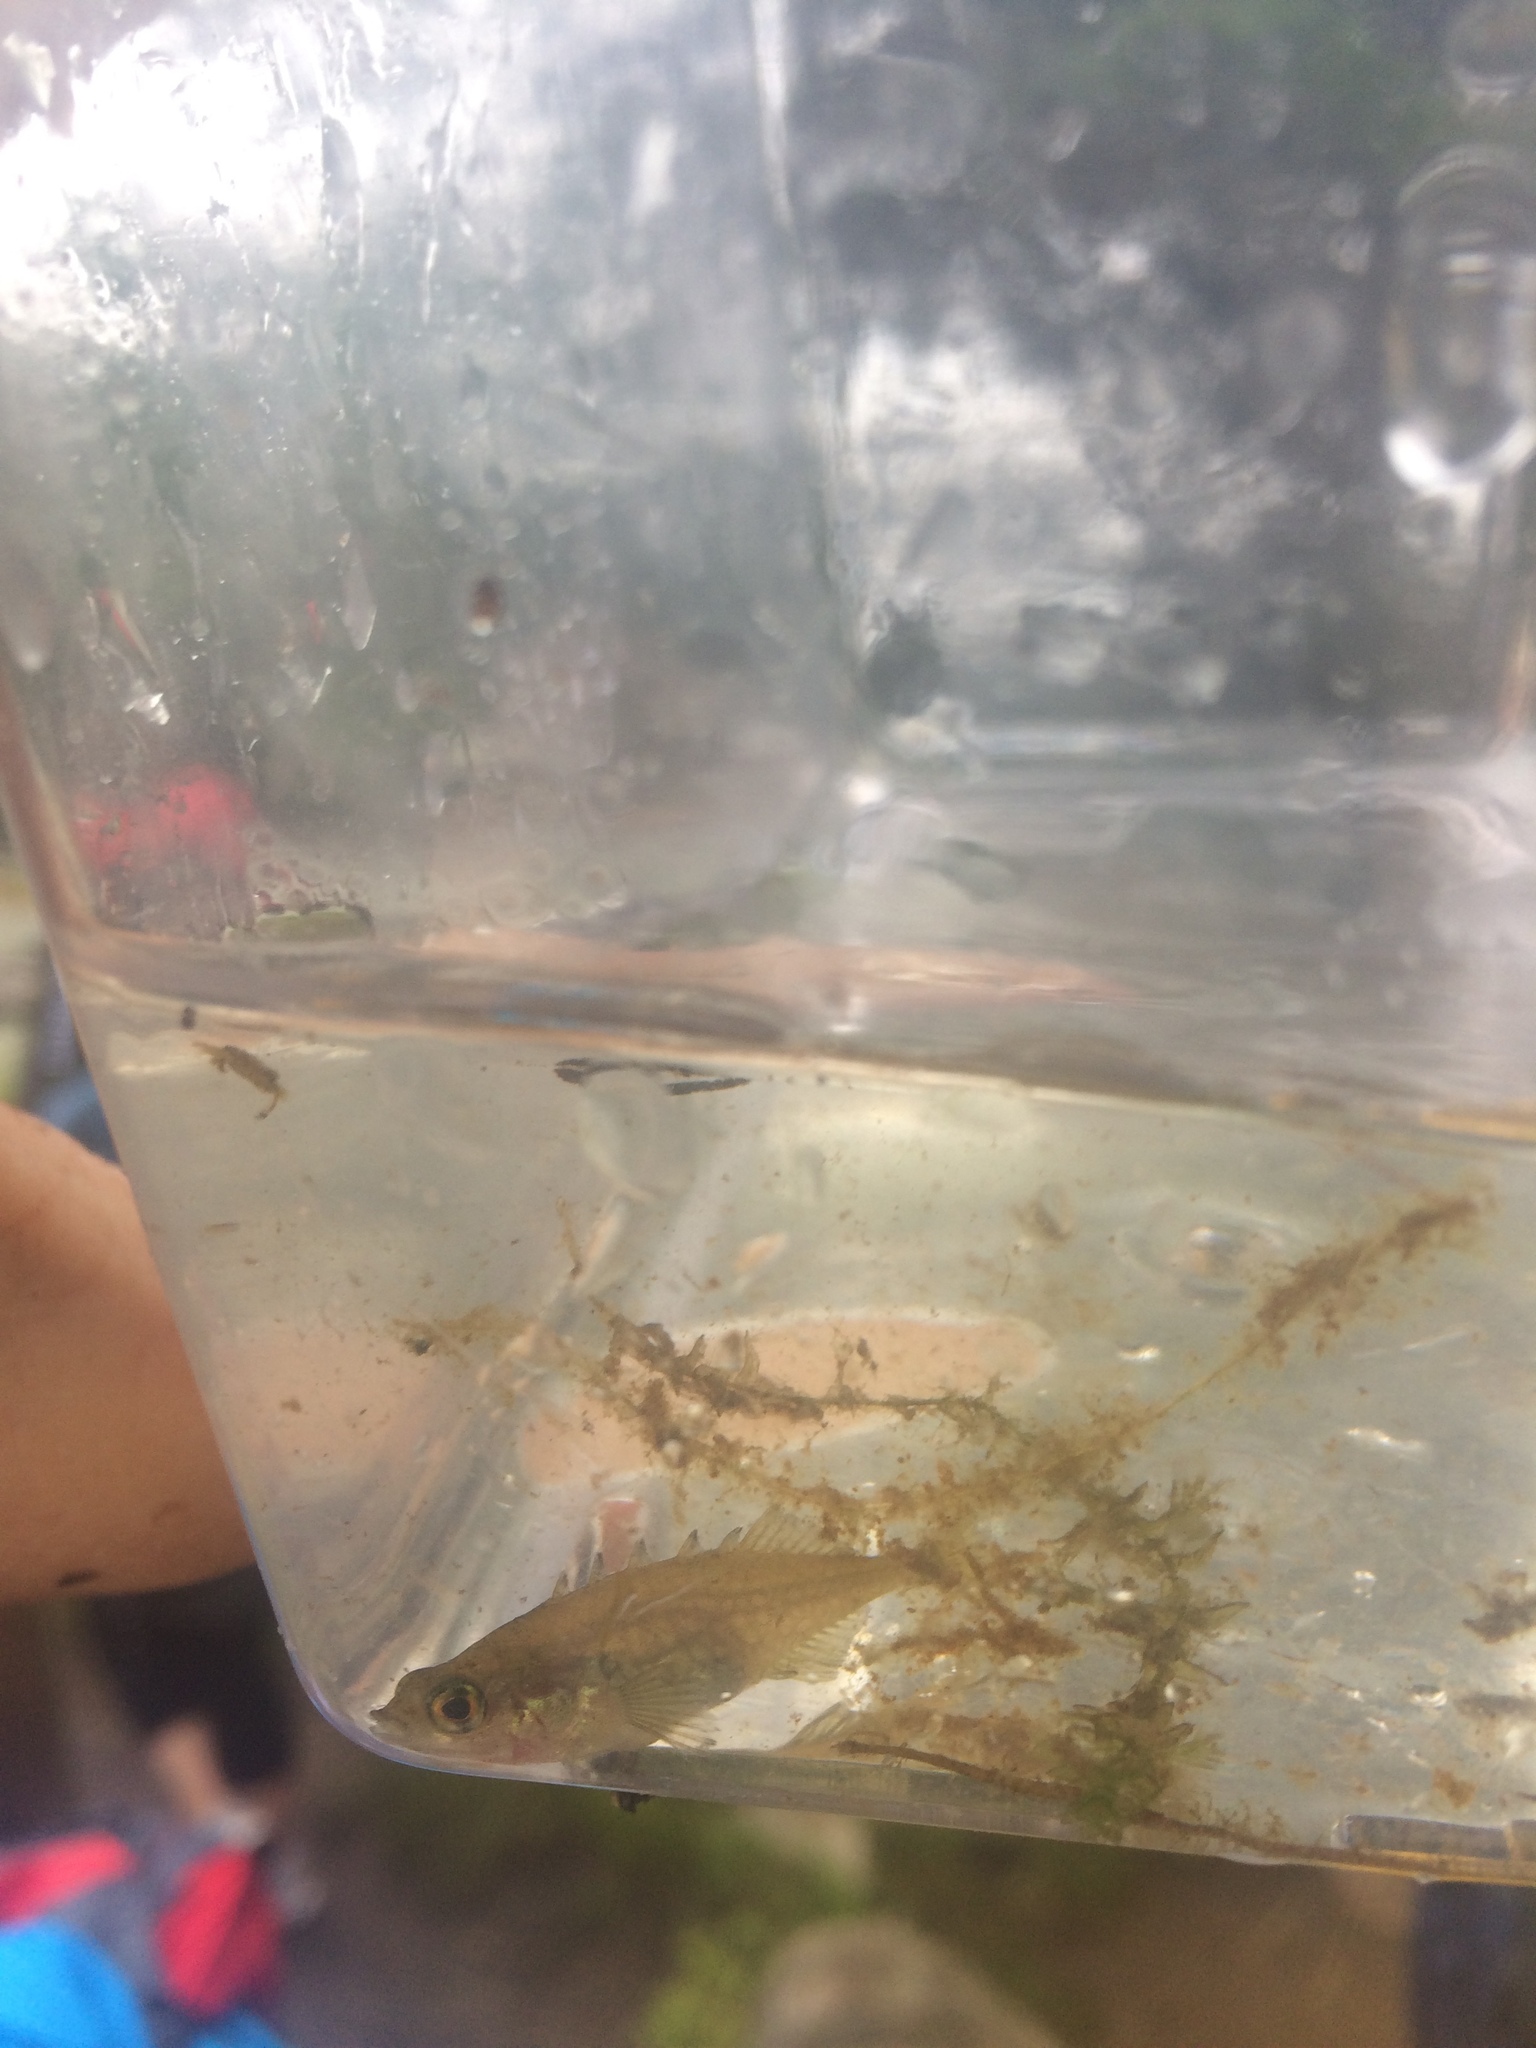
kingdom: Animalia
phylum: Chordata
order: Gasterosteiformes
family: Gasterosteidae
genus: Culaea
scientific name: Culaea inconstans
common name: Brook stickleback
